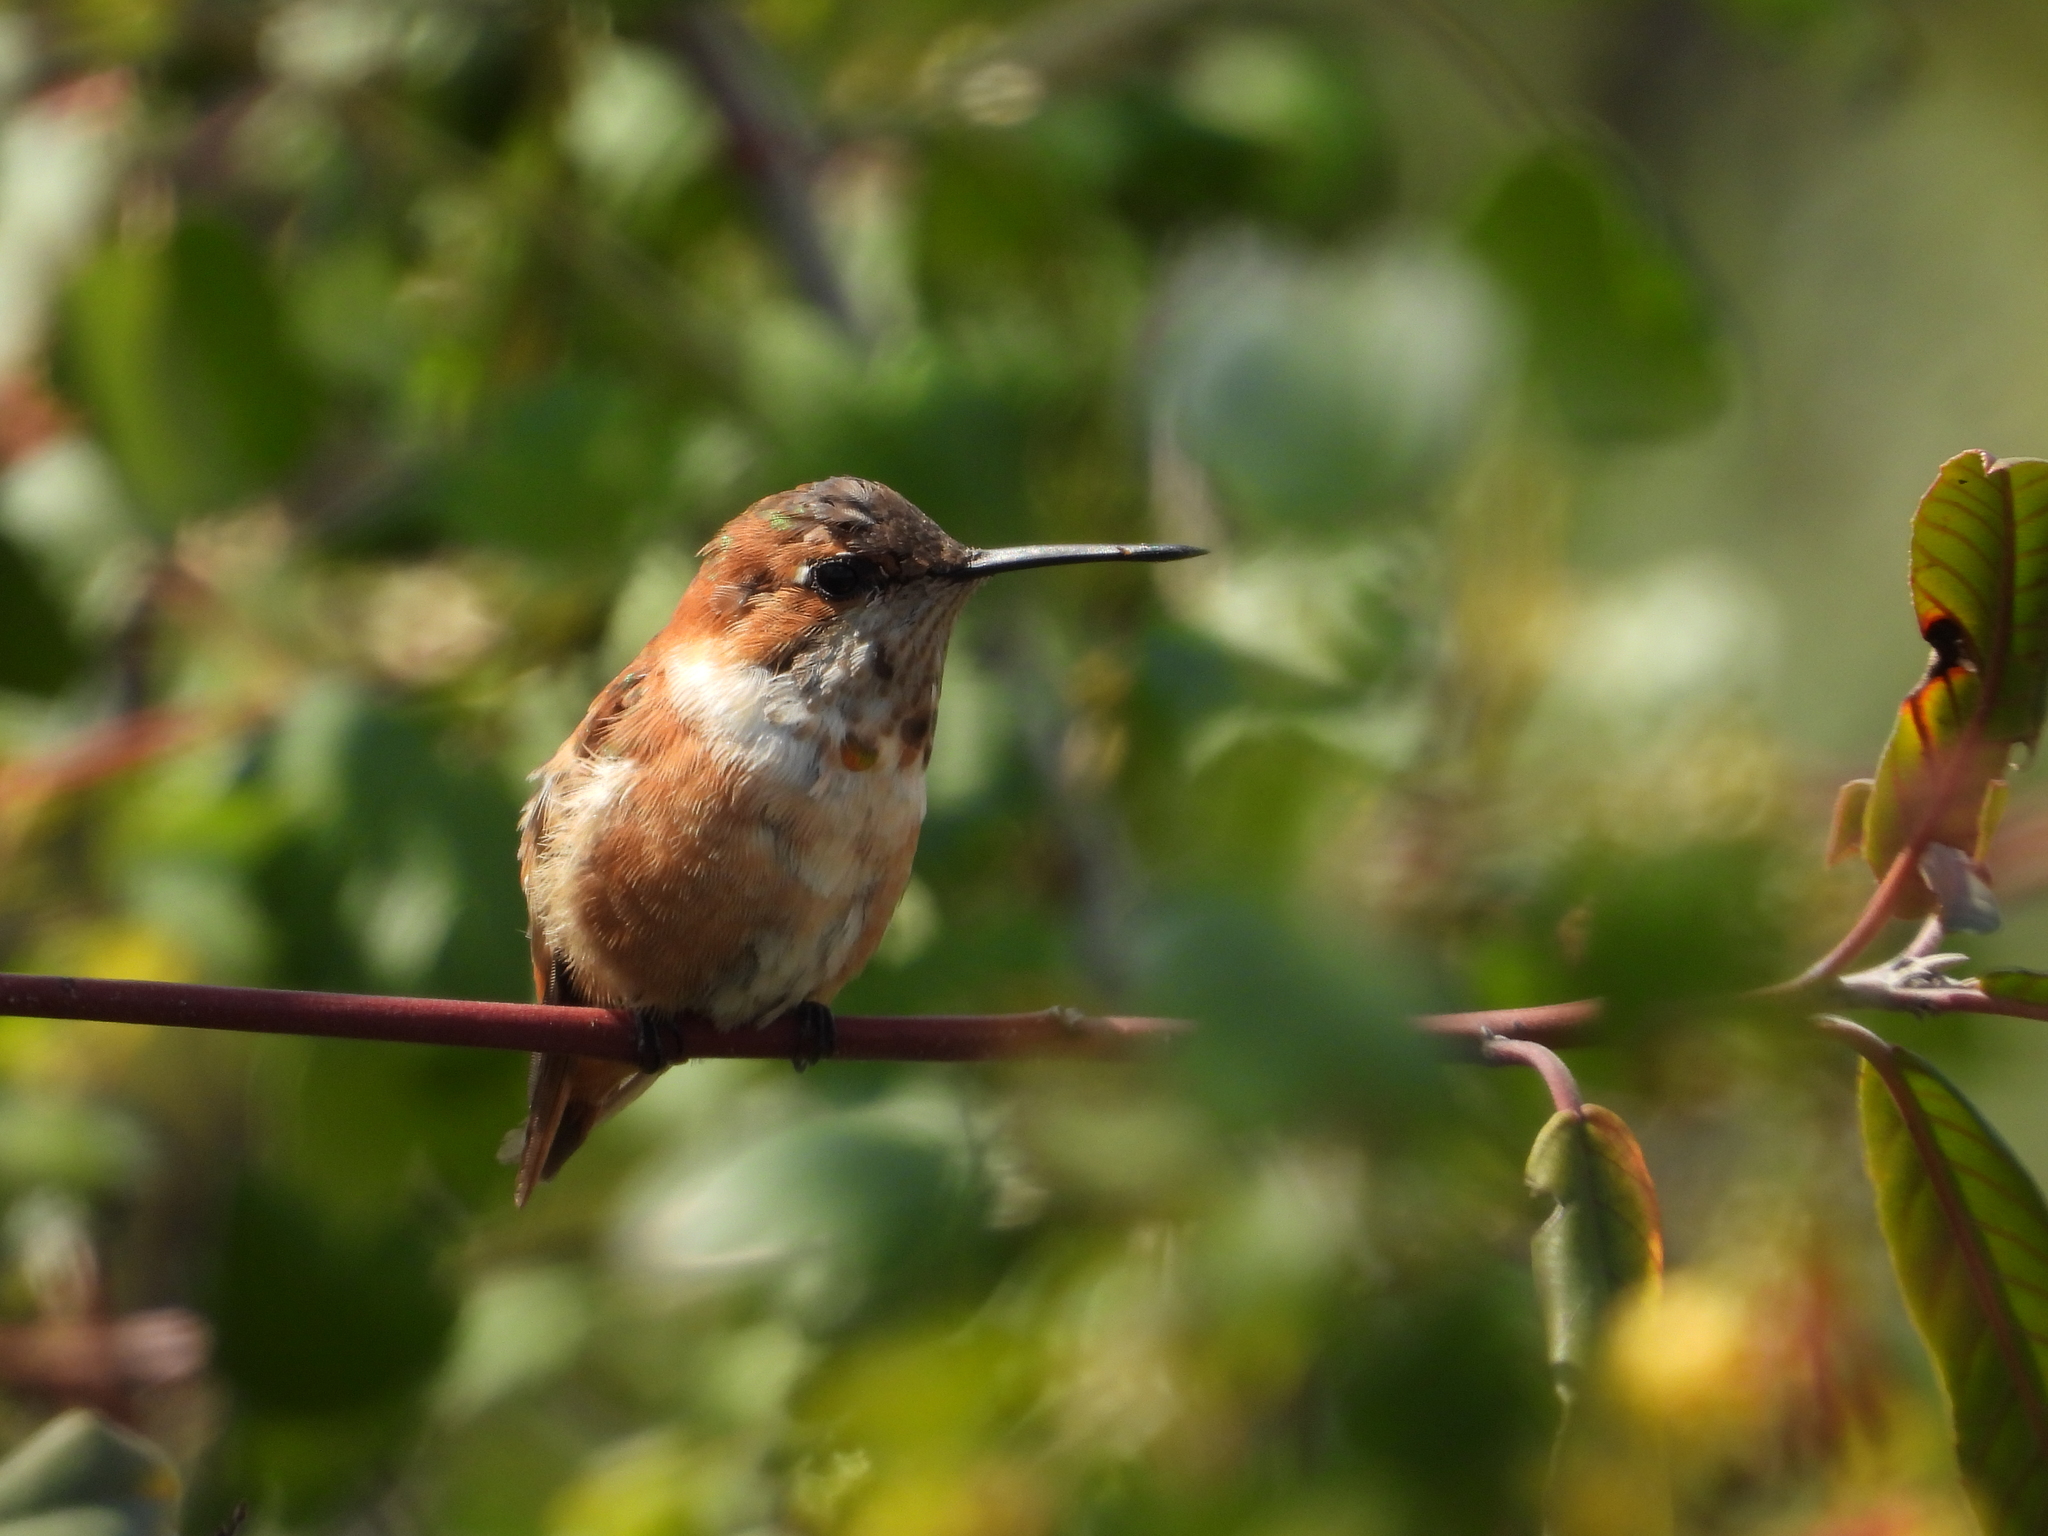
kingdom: Animalia
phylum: Chordata
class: Aves
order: Apodiformes
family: Trochilidae
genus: Selasphorus
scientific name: Selasphorus rufus
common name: Rufous hummingbird
